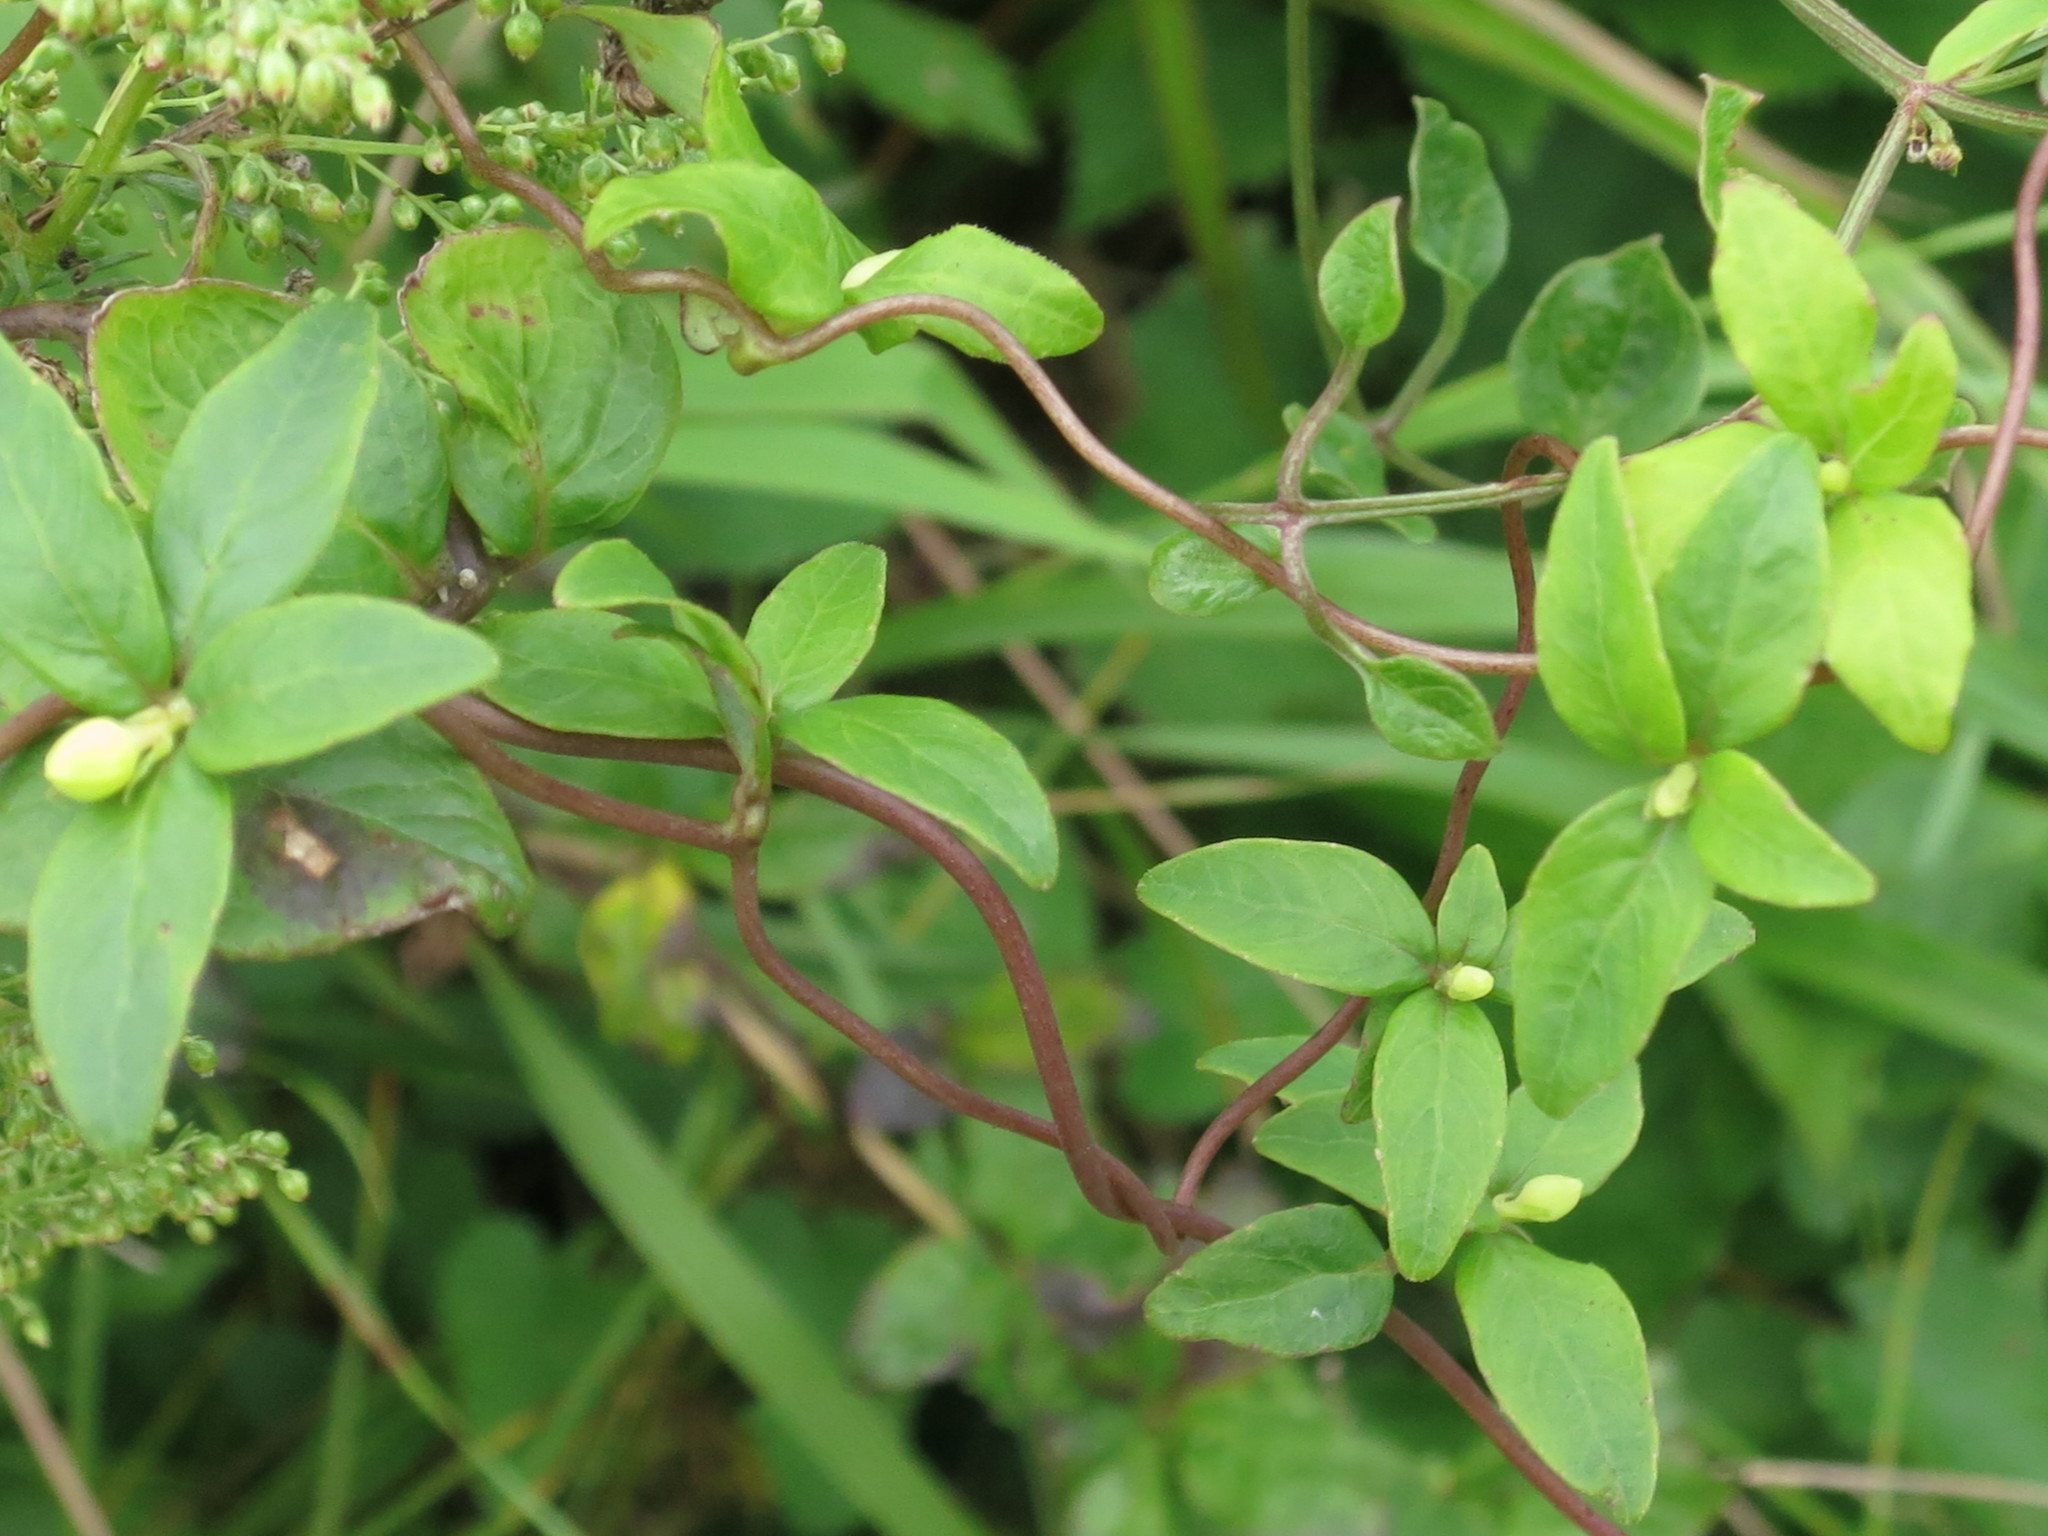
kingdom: Plantae
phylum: Tracheophyta
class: Magnoliopsida
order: Asterales
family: Campanulaceae
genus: Codonopsis
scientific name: Codonopsis lanceolata
